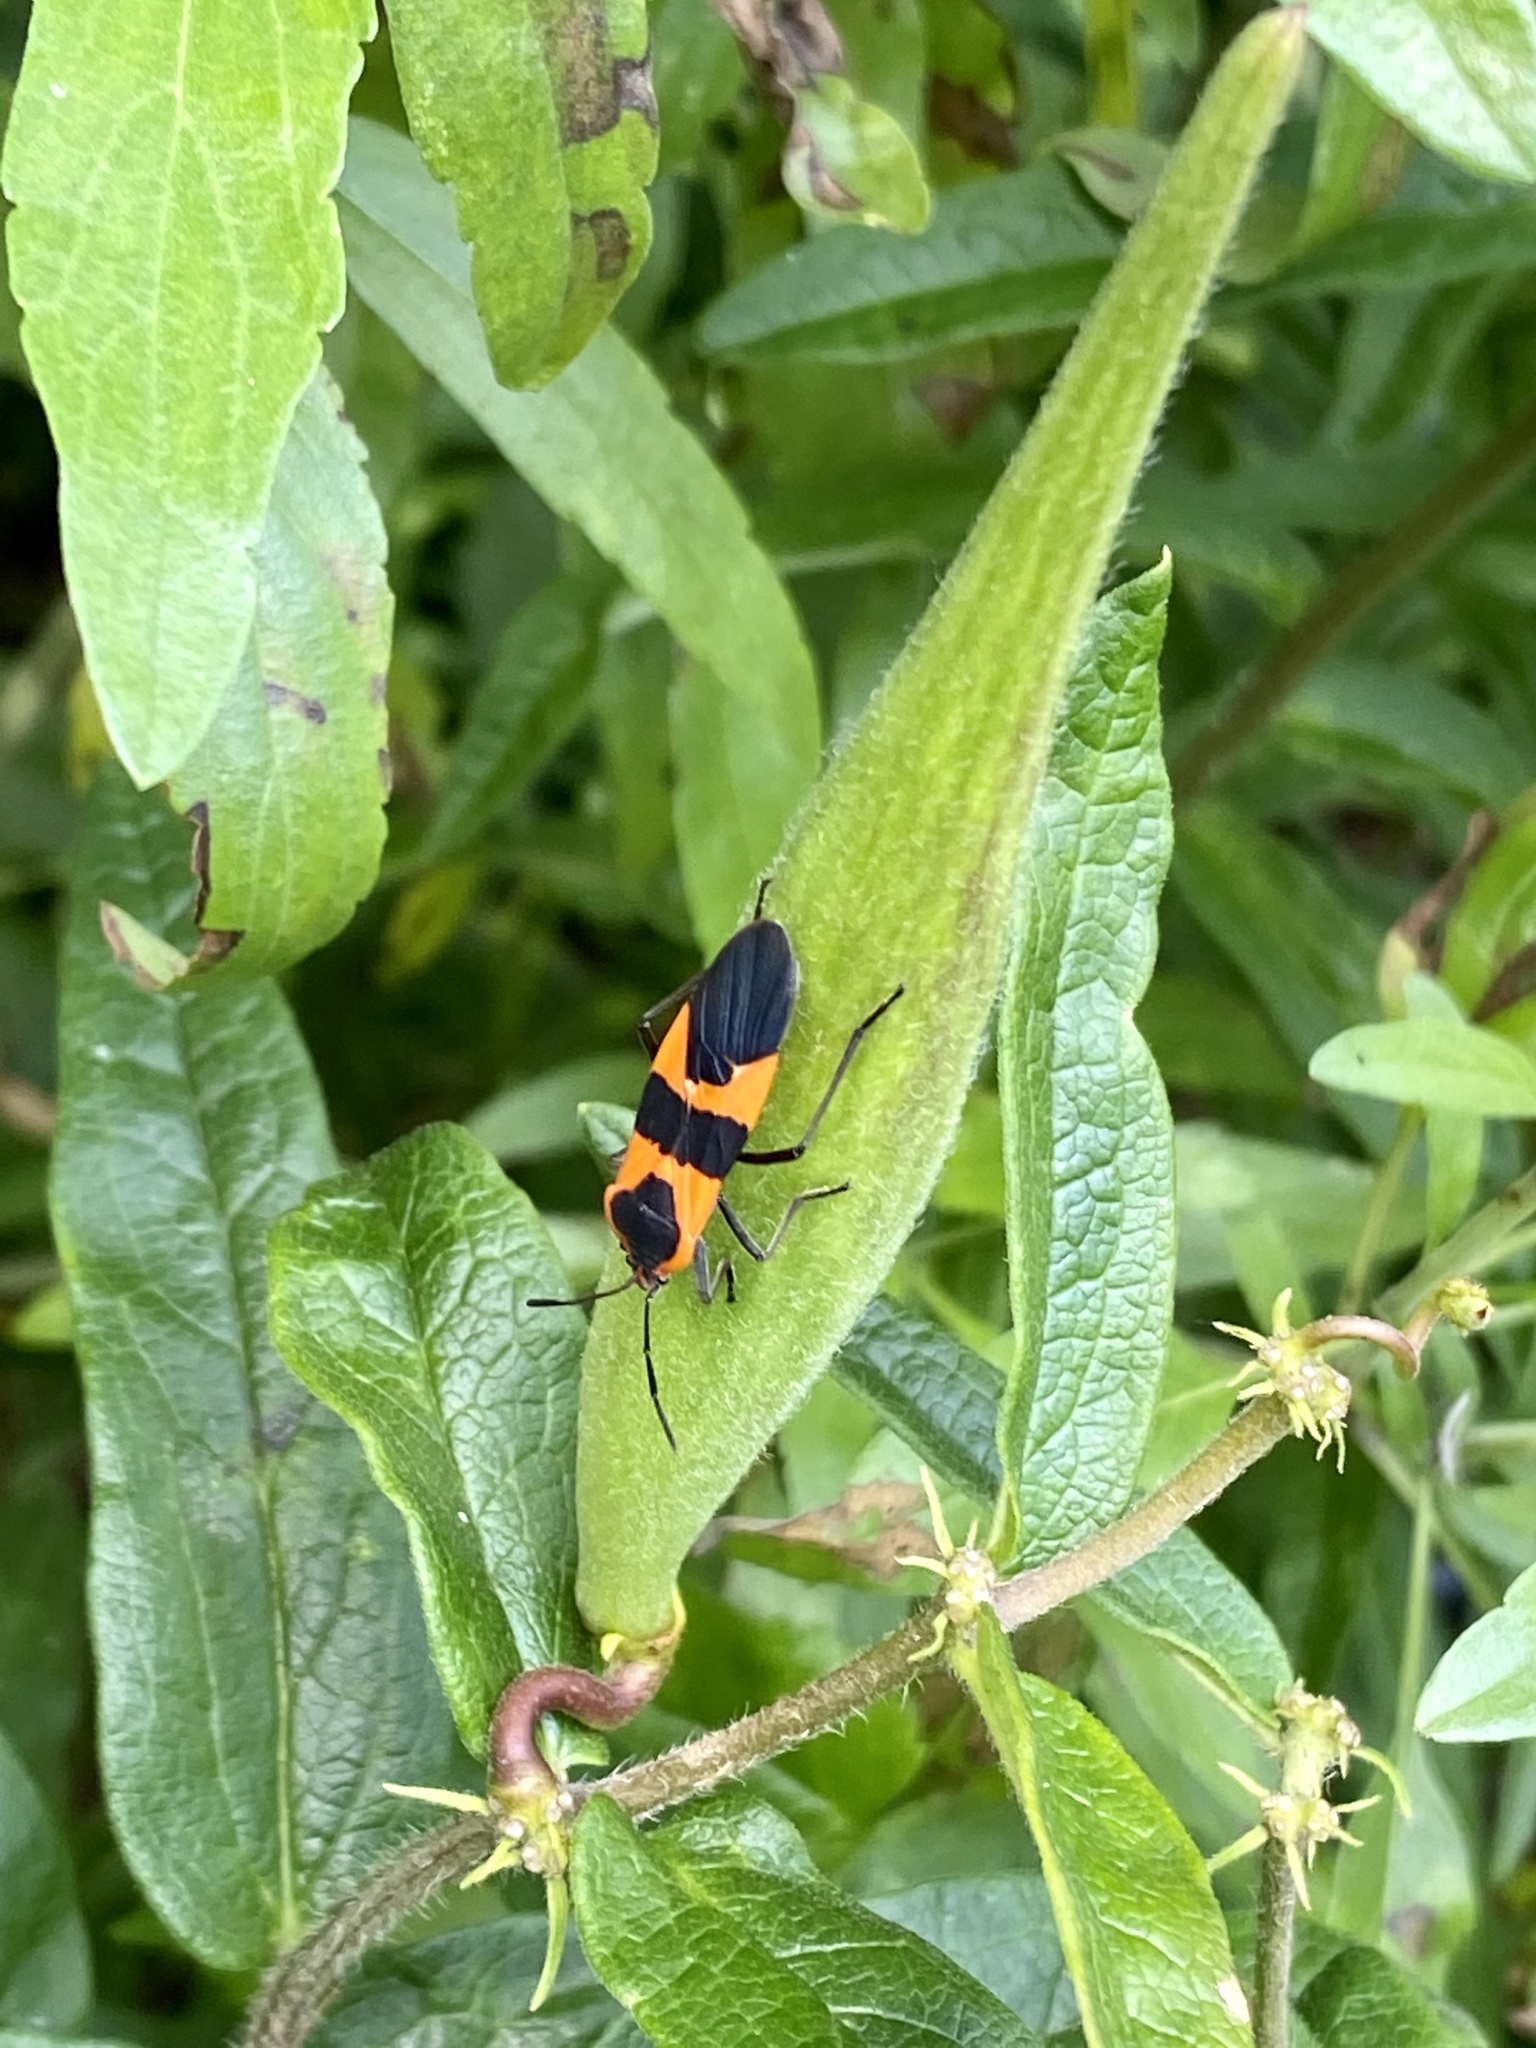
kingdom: Animalia
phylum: Arthropoda
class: Insecta
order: Hemiptera
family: Lygaeidae
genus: Oncopeltus
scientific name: Oncopeltus fasciatus
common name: Large milkweed bug
